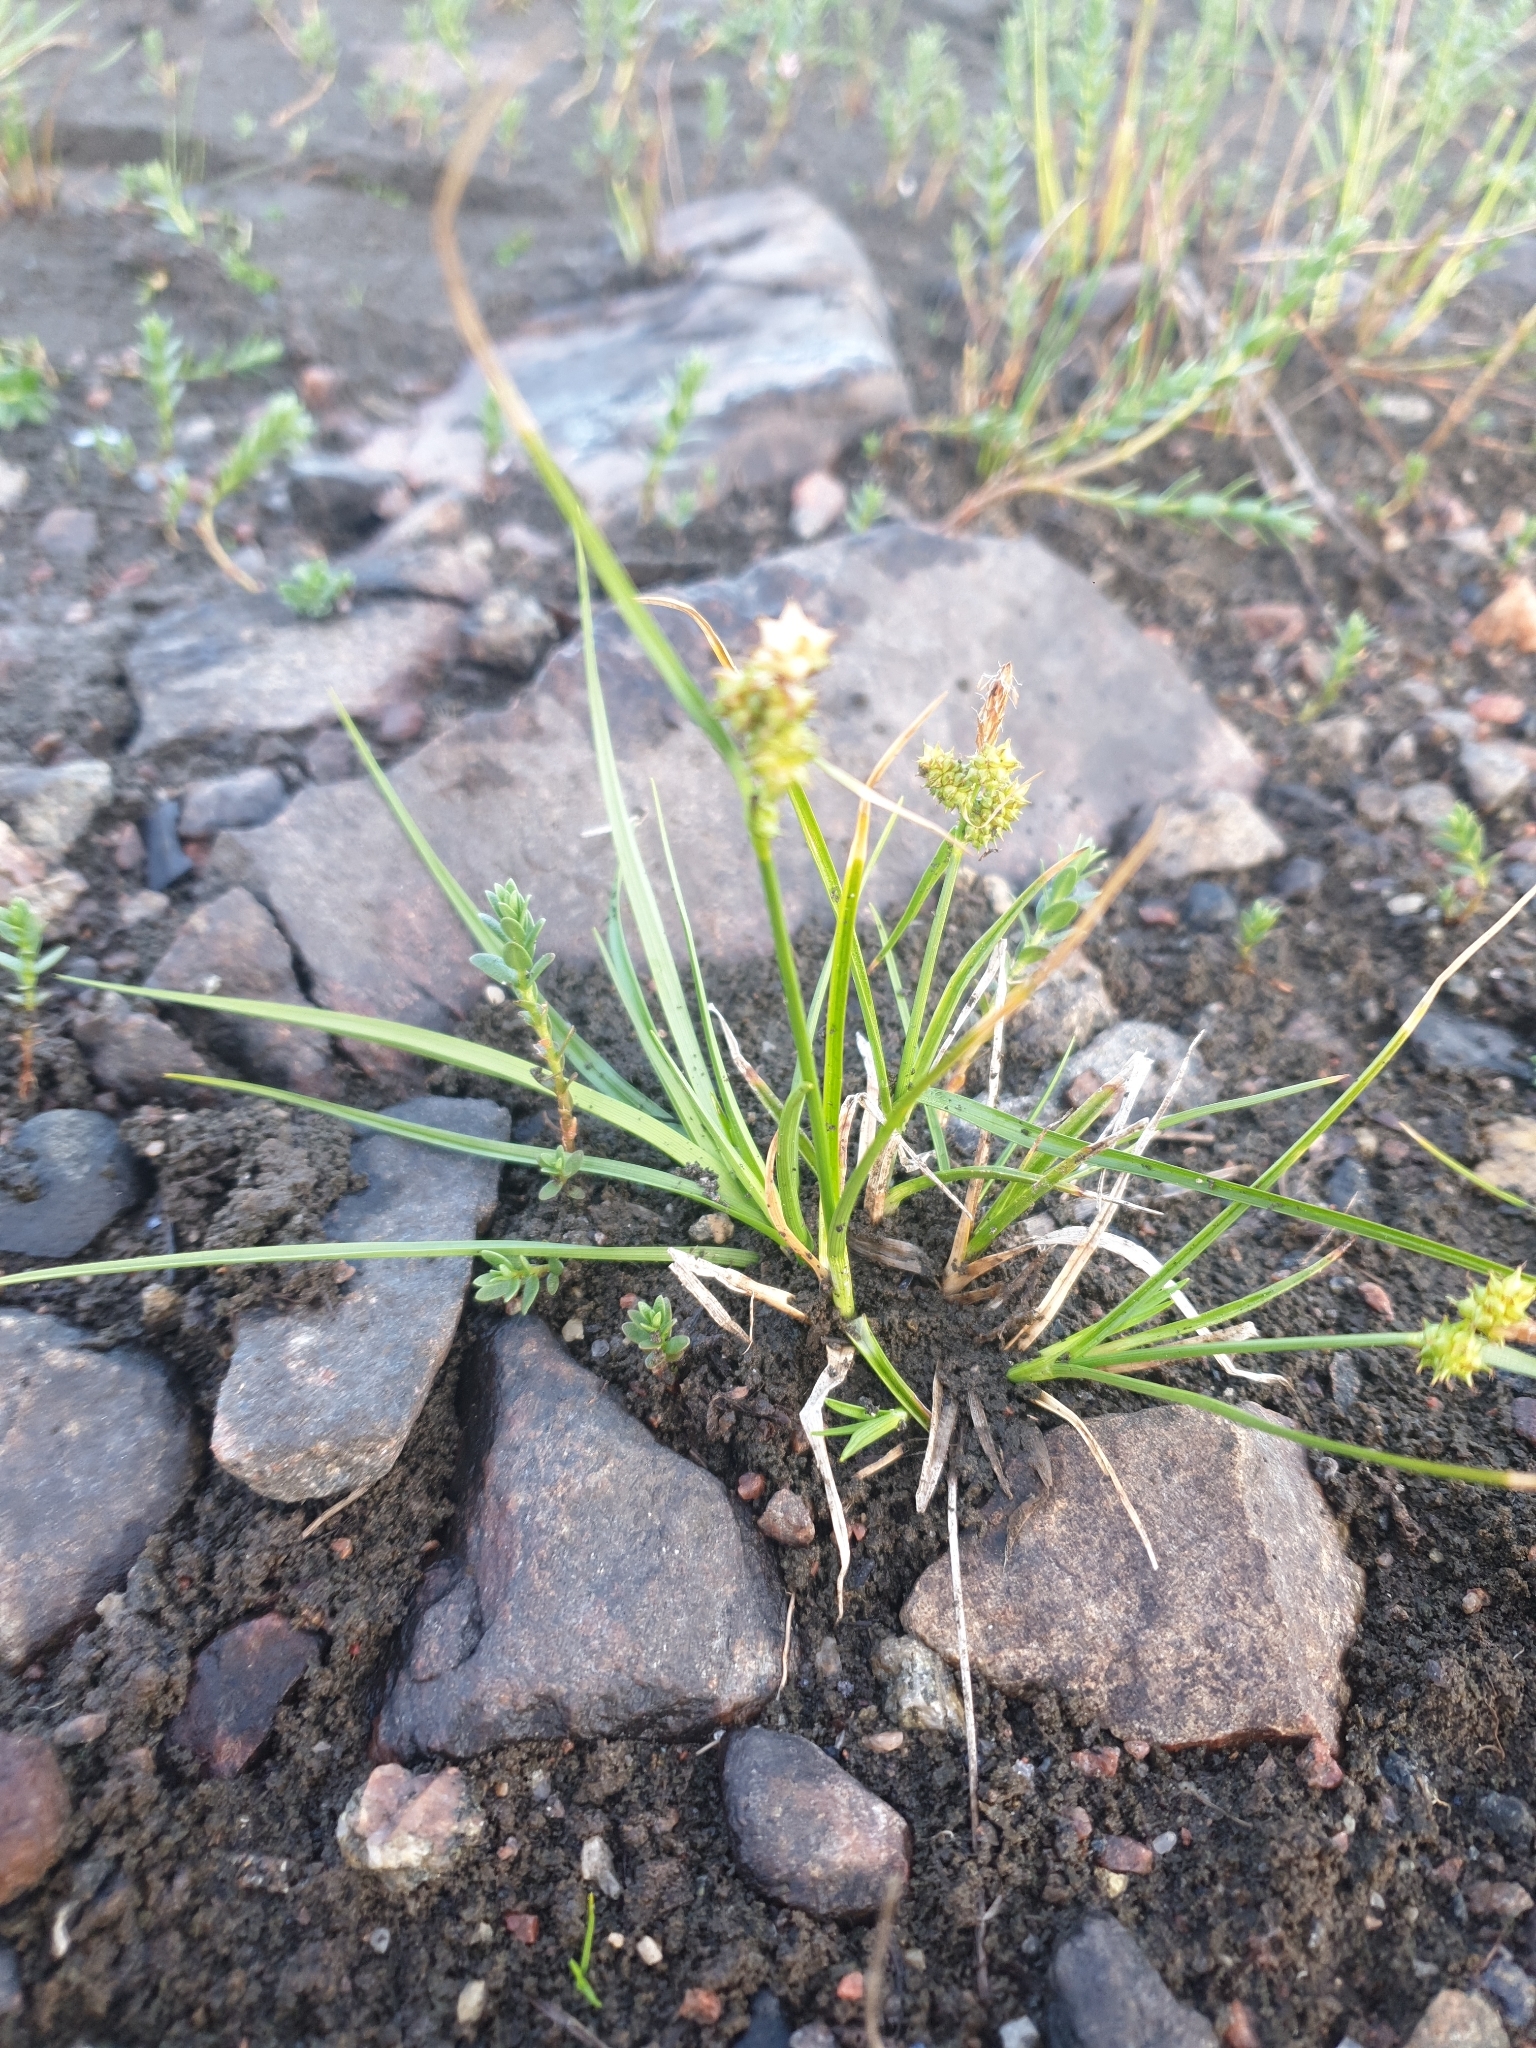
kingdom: Plantae
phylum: Tracheophyta
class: Liliopsida
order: Poales
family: Cyperaceae
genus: Carex
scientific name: Carex
